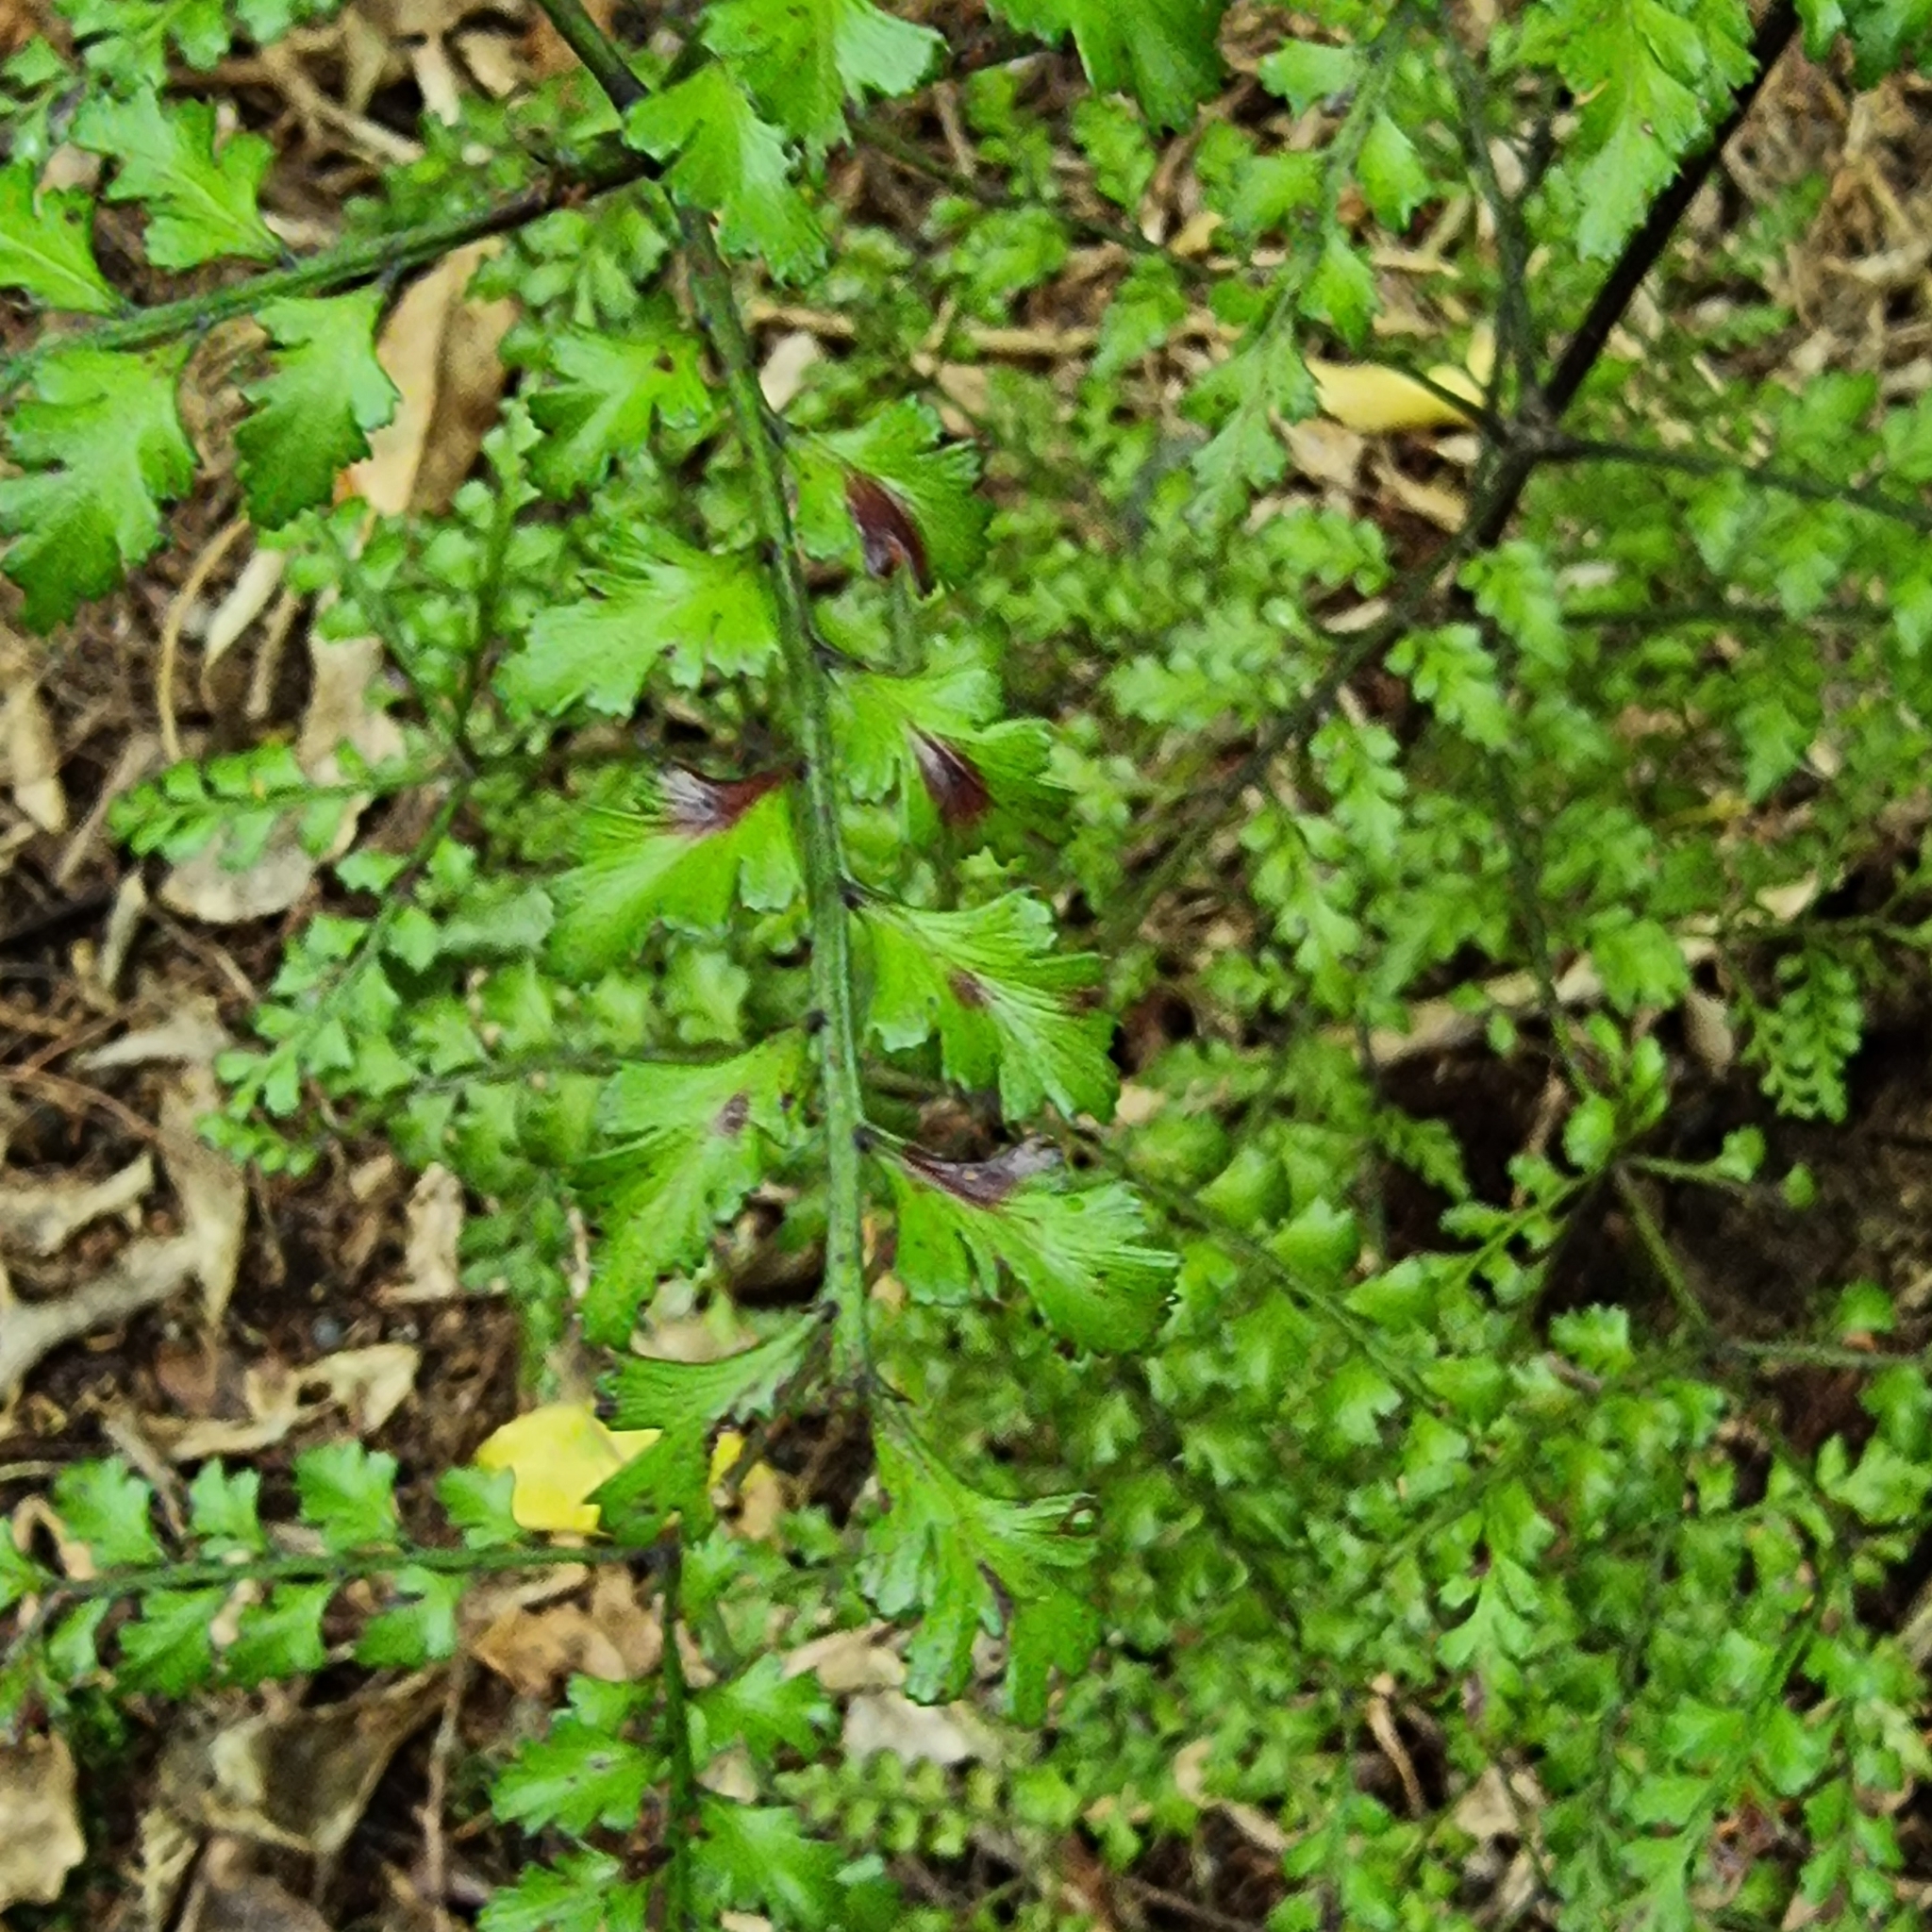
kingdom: Plantae
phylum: Tracheophyta
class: Pinopsida
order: Pinales
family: Phyllocladaceae
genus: Phyllocladus
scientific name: Phyllocladus trichomanoides
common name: Celery pine
